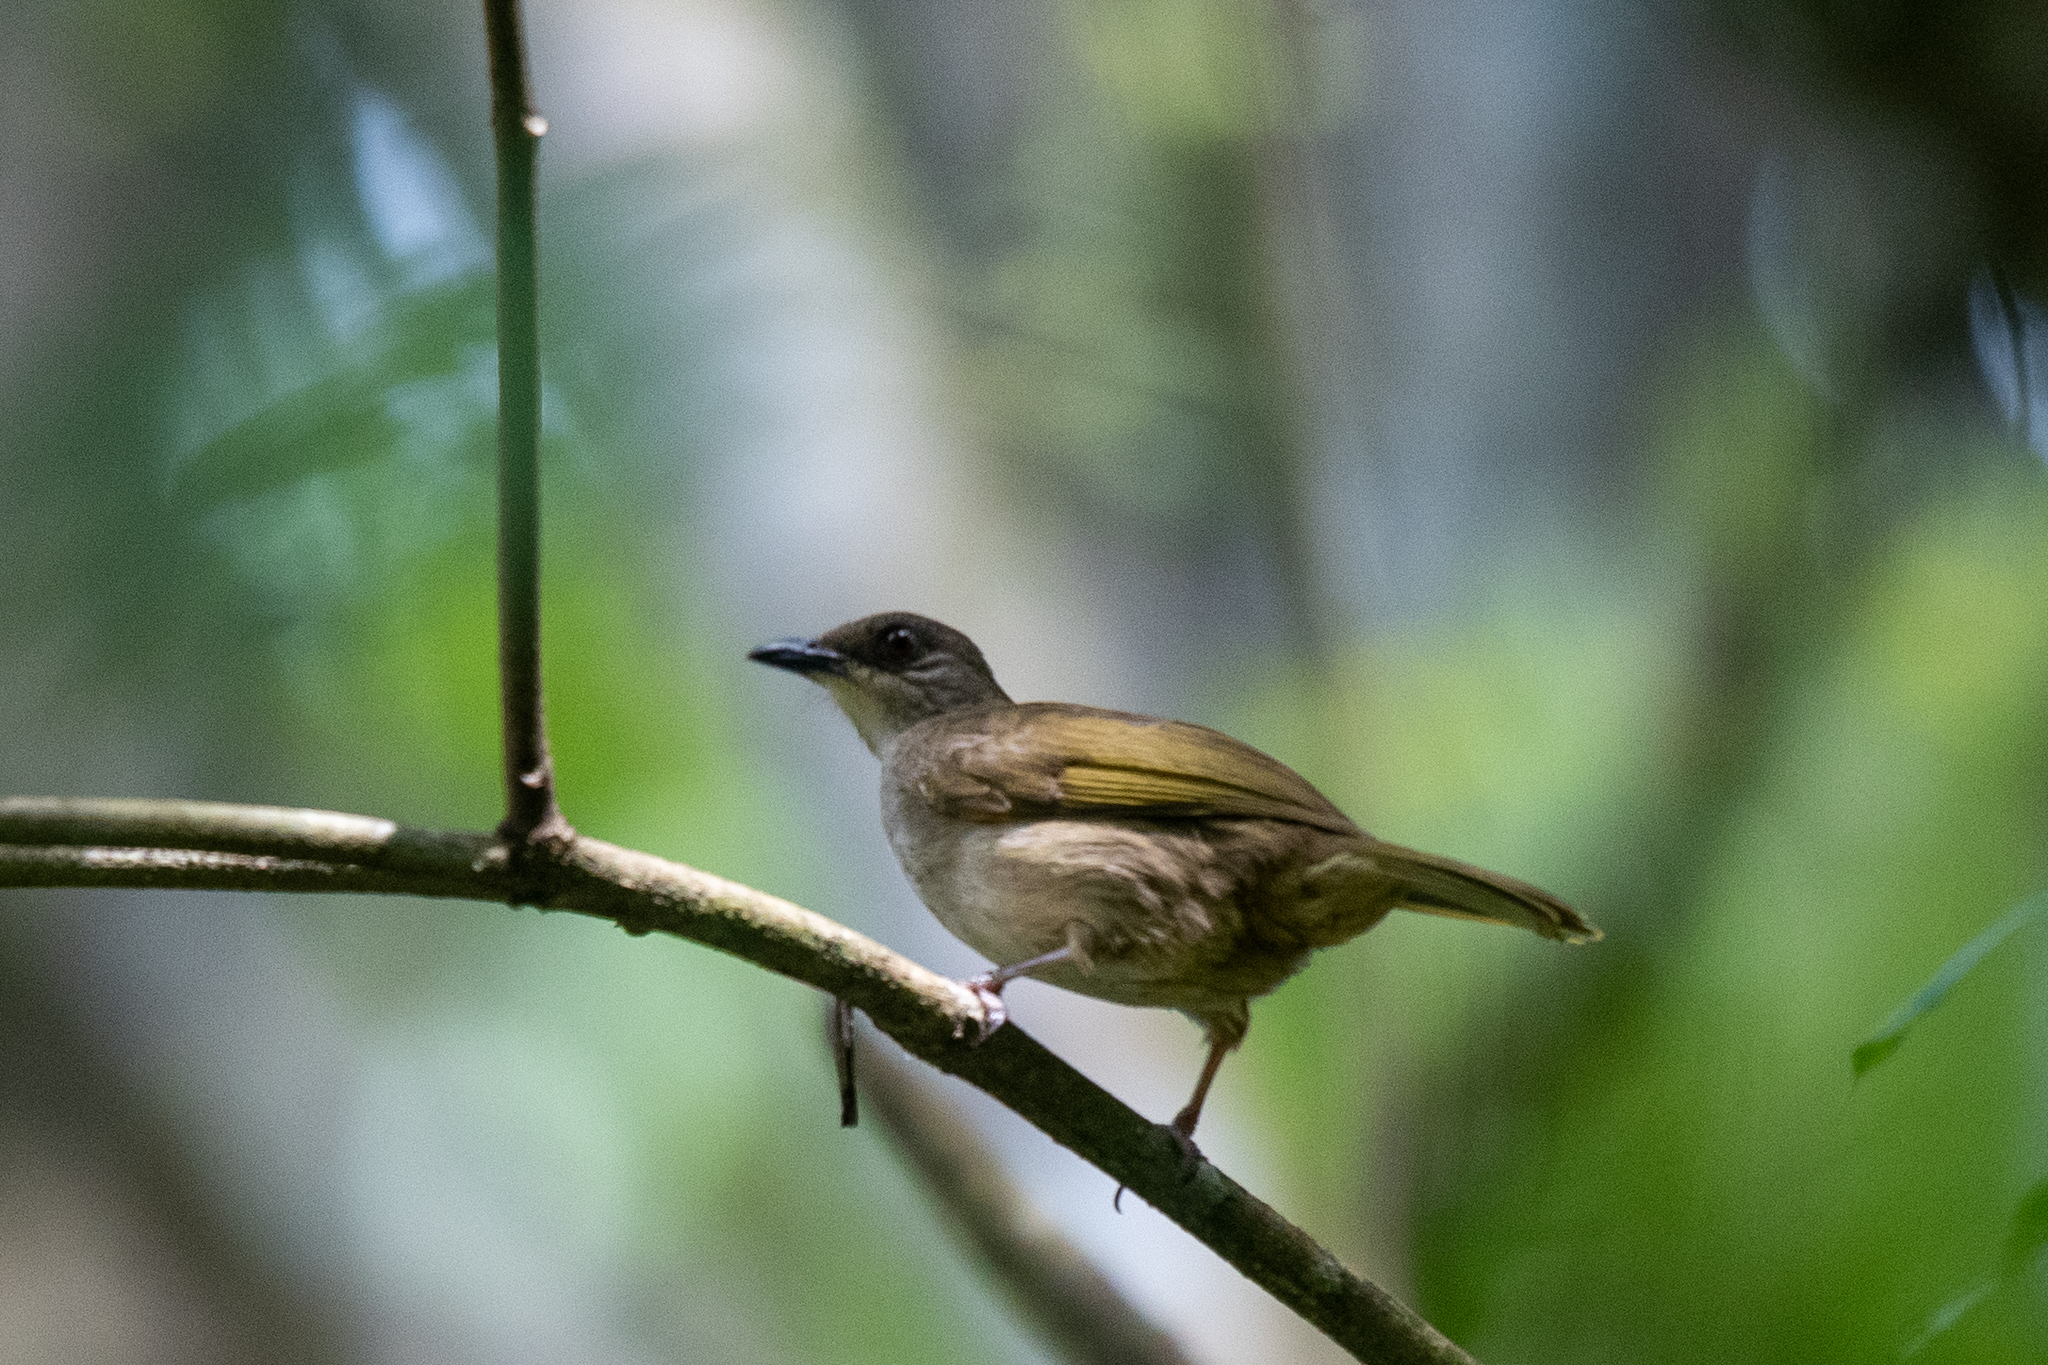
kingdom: Animalia
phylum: Chordata
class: Aves
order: Passeriformes
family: Pycnonotidae
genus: Pycnonotus
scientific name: Pycnonotus plumosus
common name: Olive-winged bulbul
